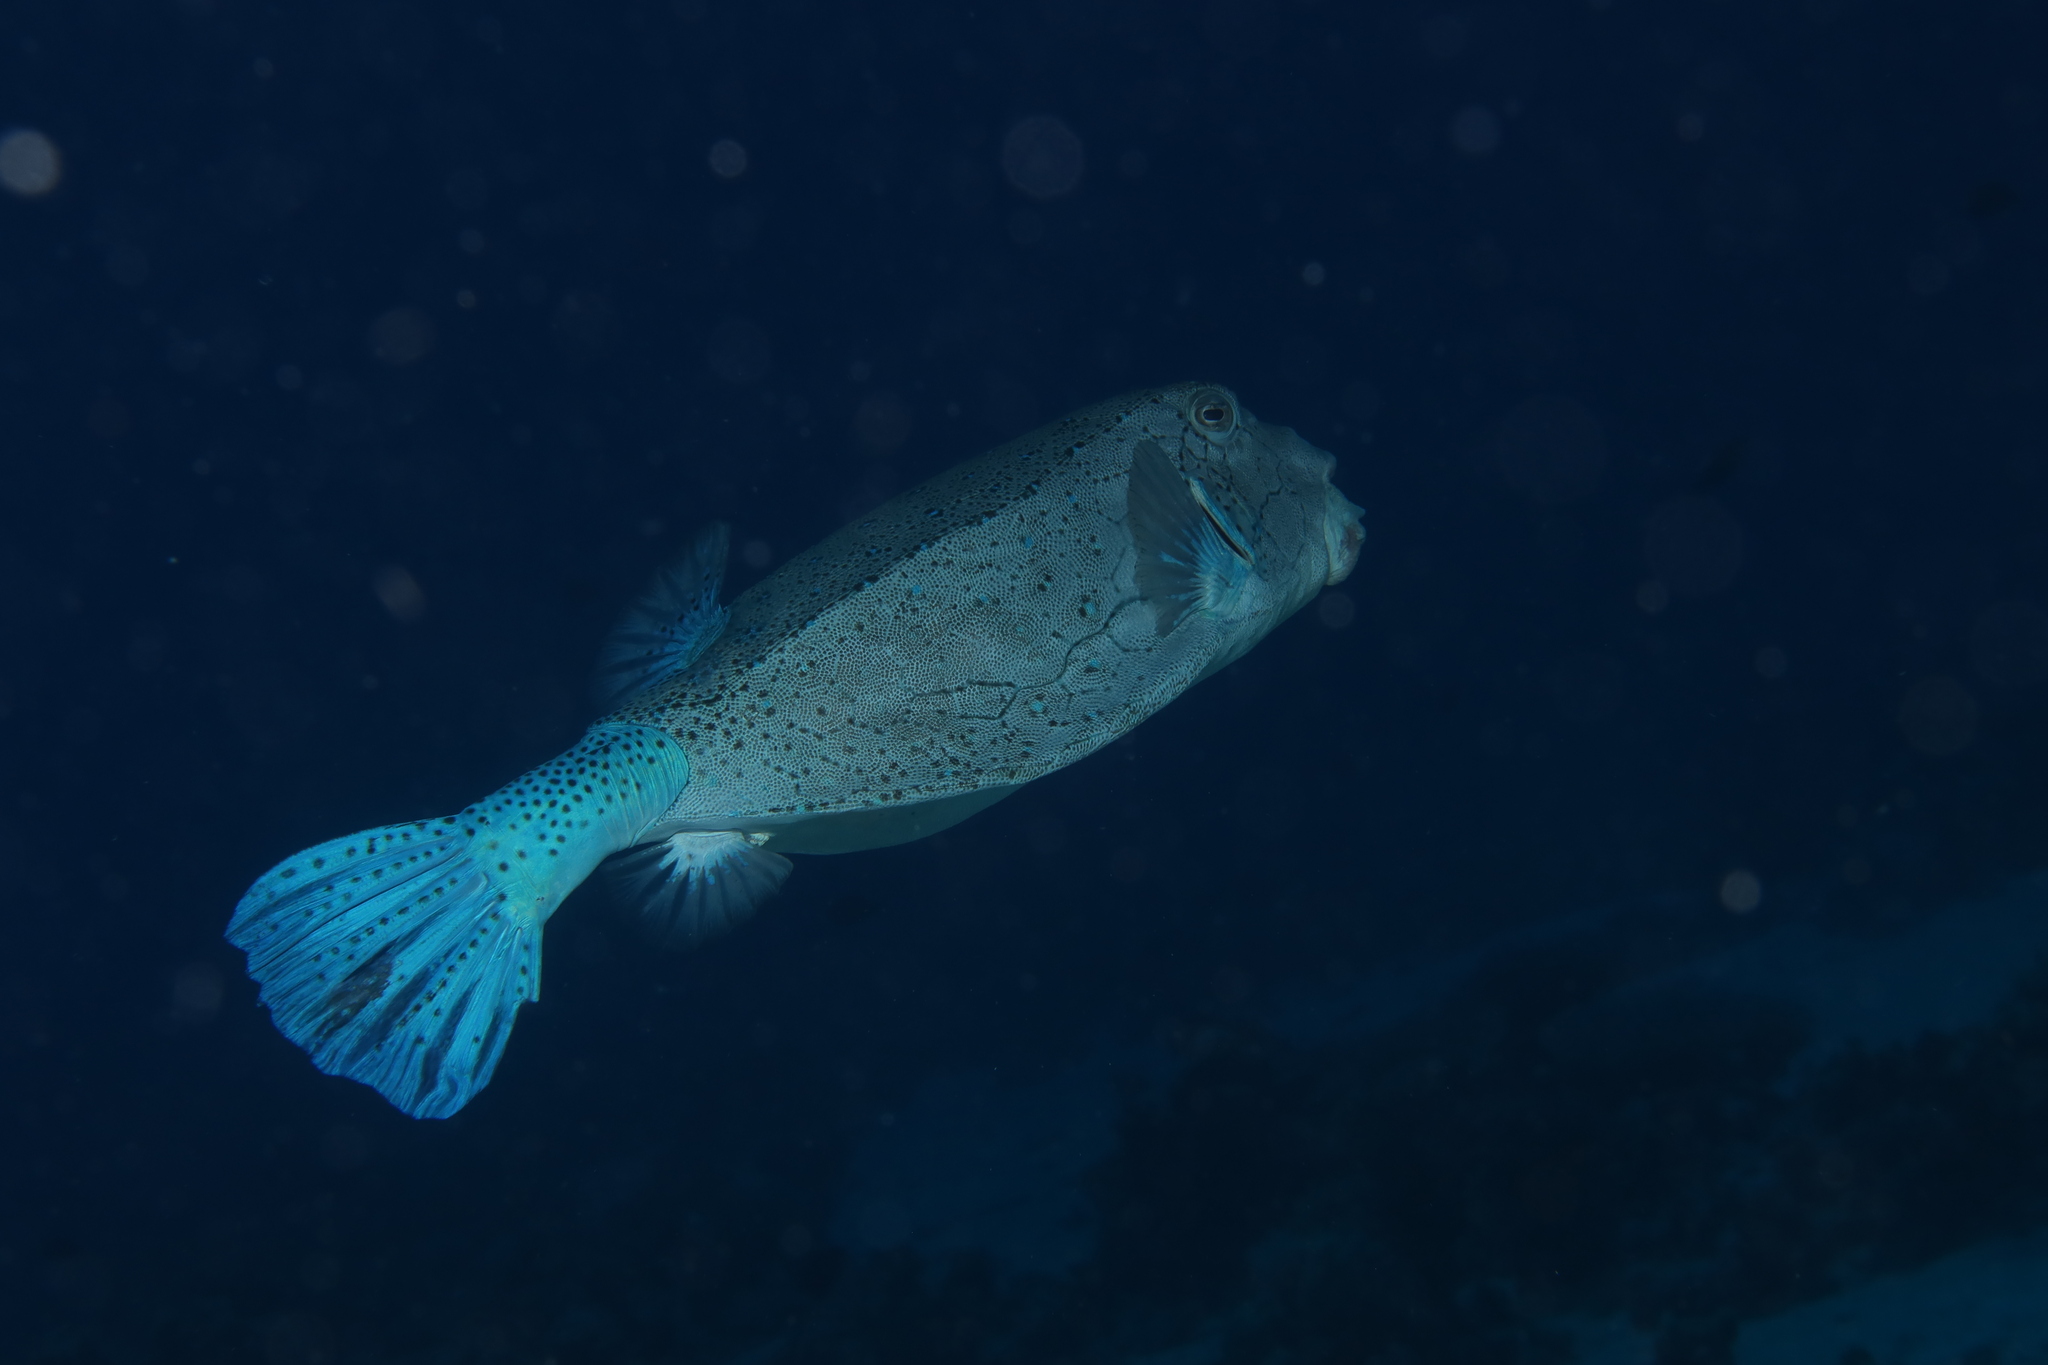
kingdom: Animalia
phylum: Chordata
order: Tetraodontiformes
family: Ostraciidae
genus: Ostracion
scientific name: Ostracion cubicus
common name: Cube trunkfish
